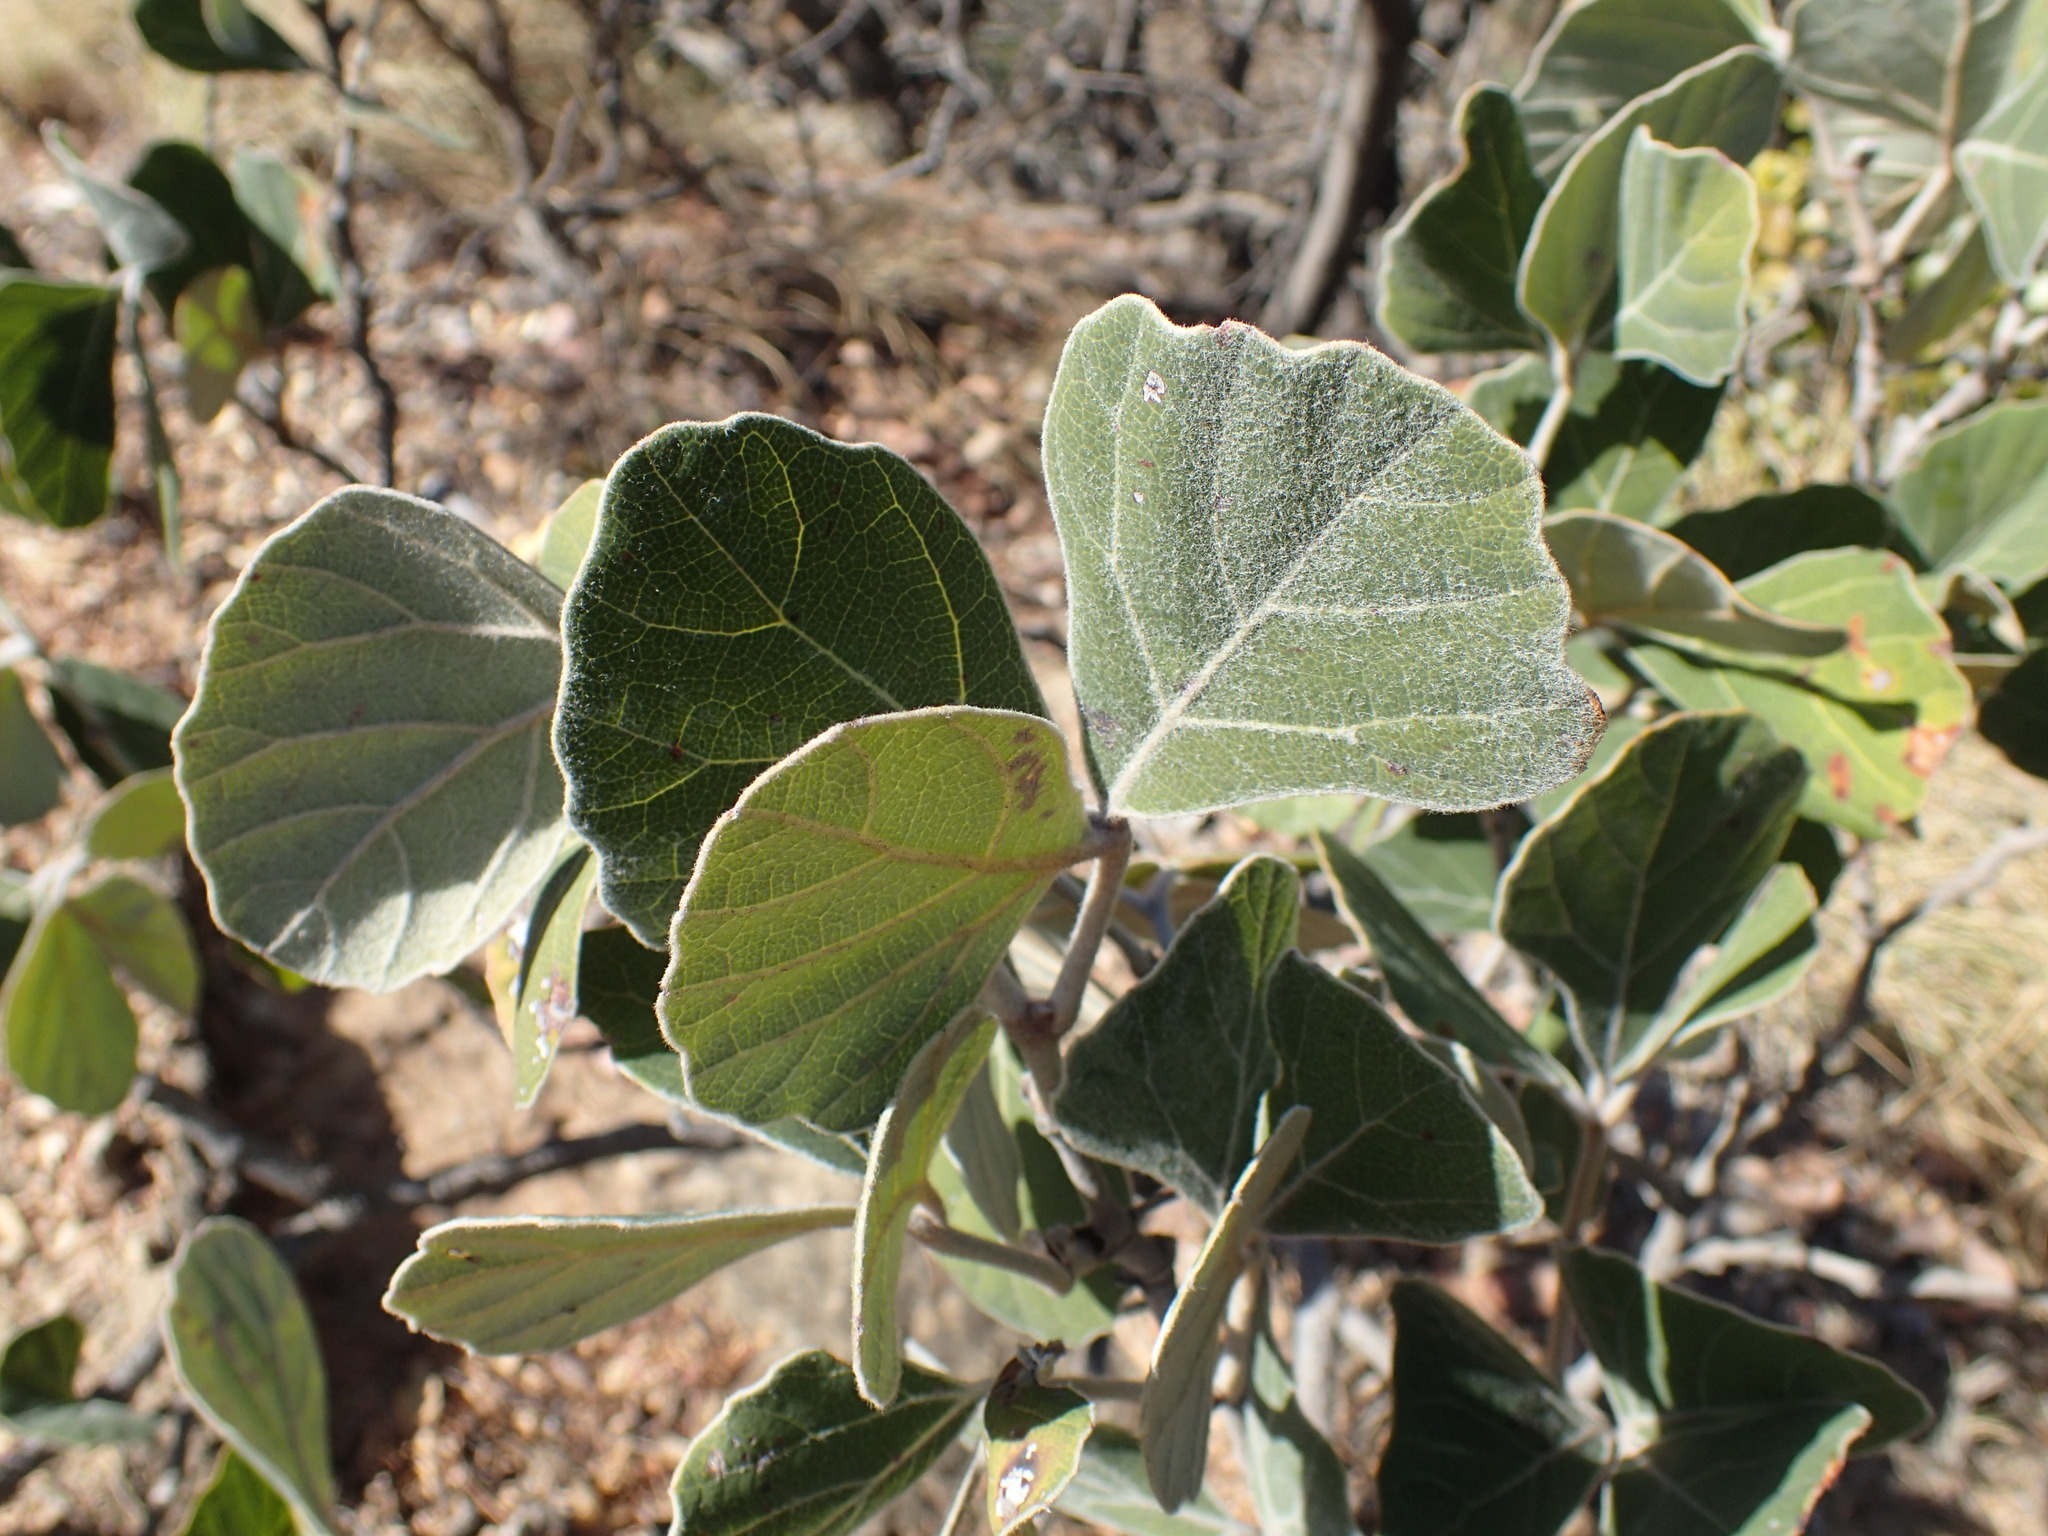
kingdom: Plantae
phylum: Tracheophyta
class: Magnoliopsida
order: Vitales
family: Vitaceae
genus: Rhoicissus
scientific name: Rhoicissus sekhukhuniensis
